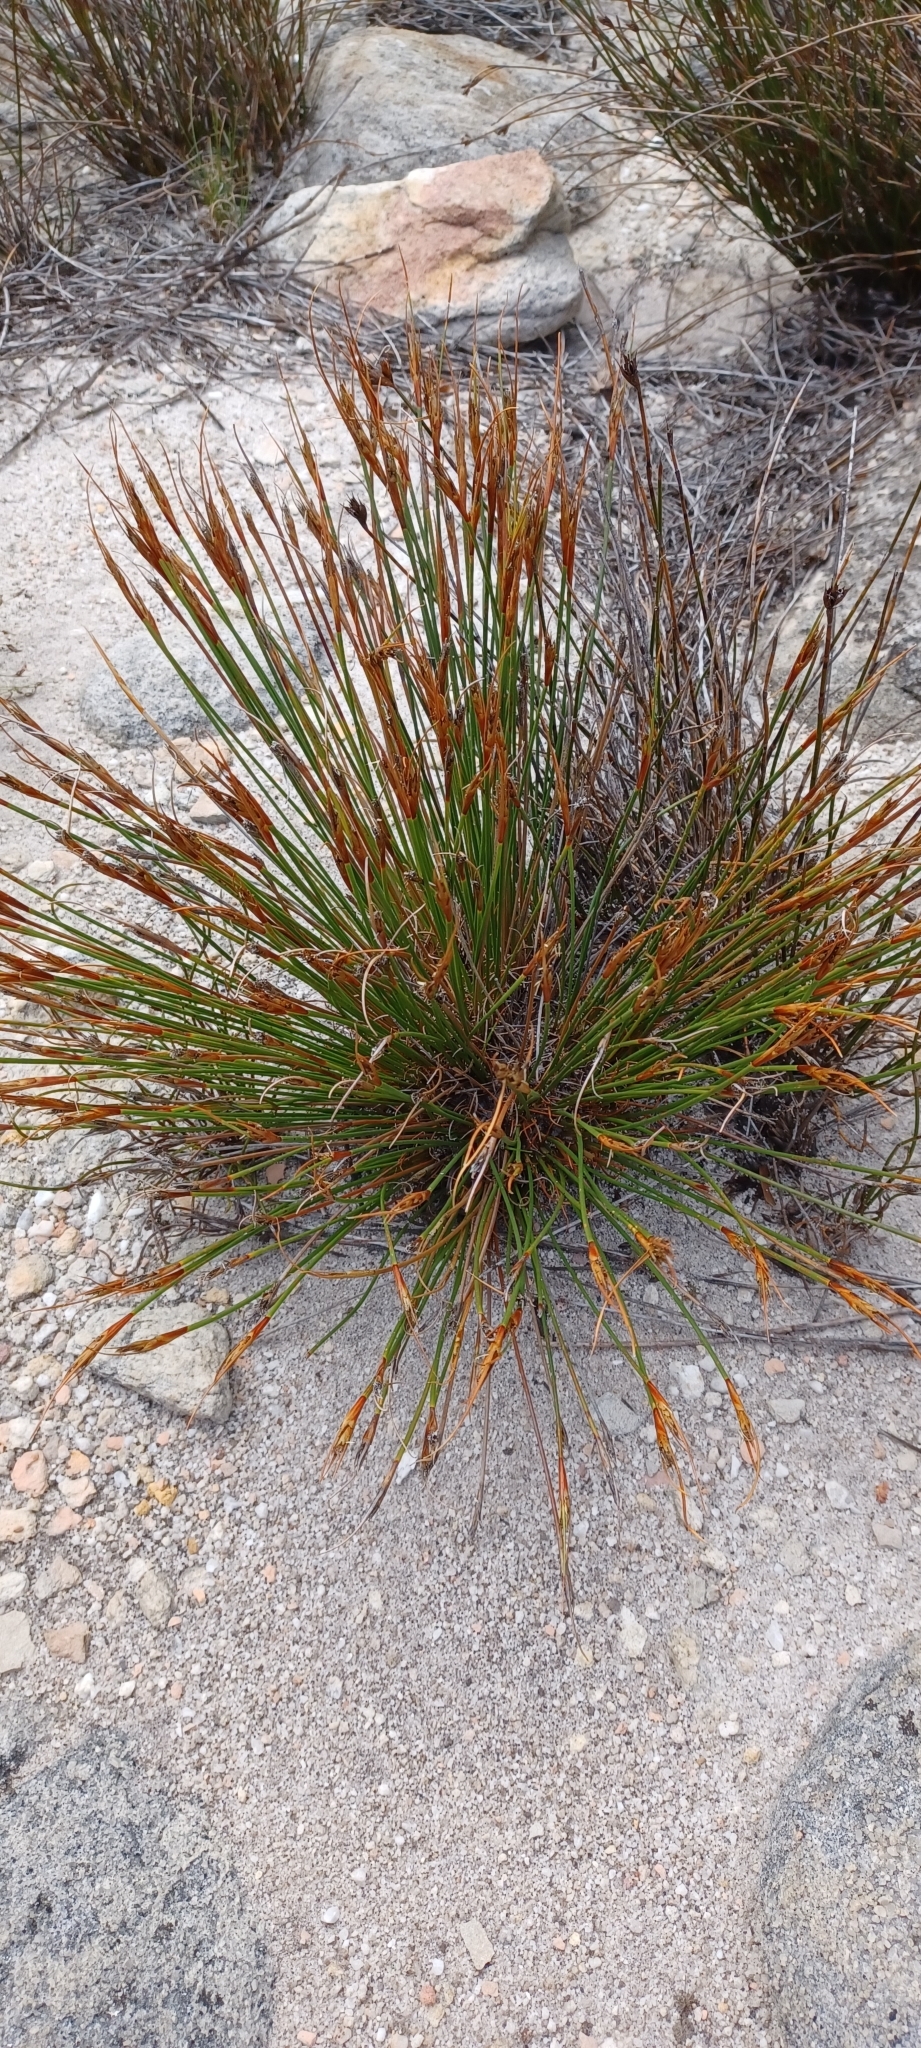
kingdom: Plantae
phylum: Tracheophyta
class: Liliopsida
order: Poales
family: Cyperaceae
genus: Schoenus
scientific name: Schoenus pictus
